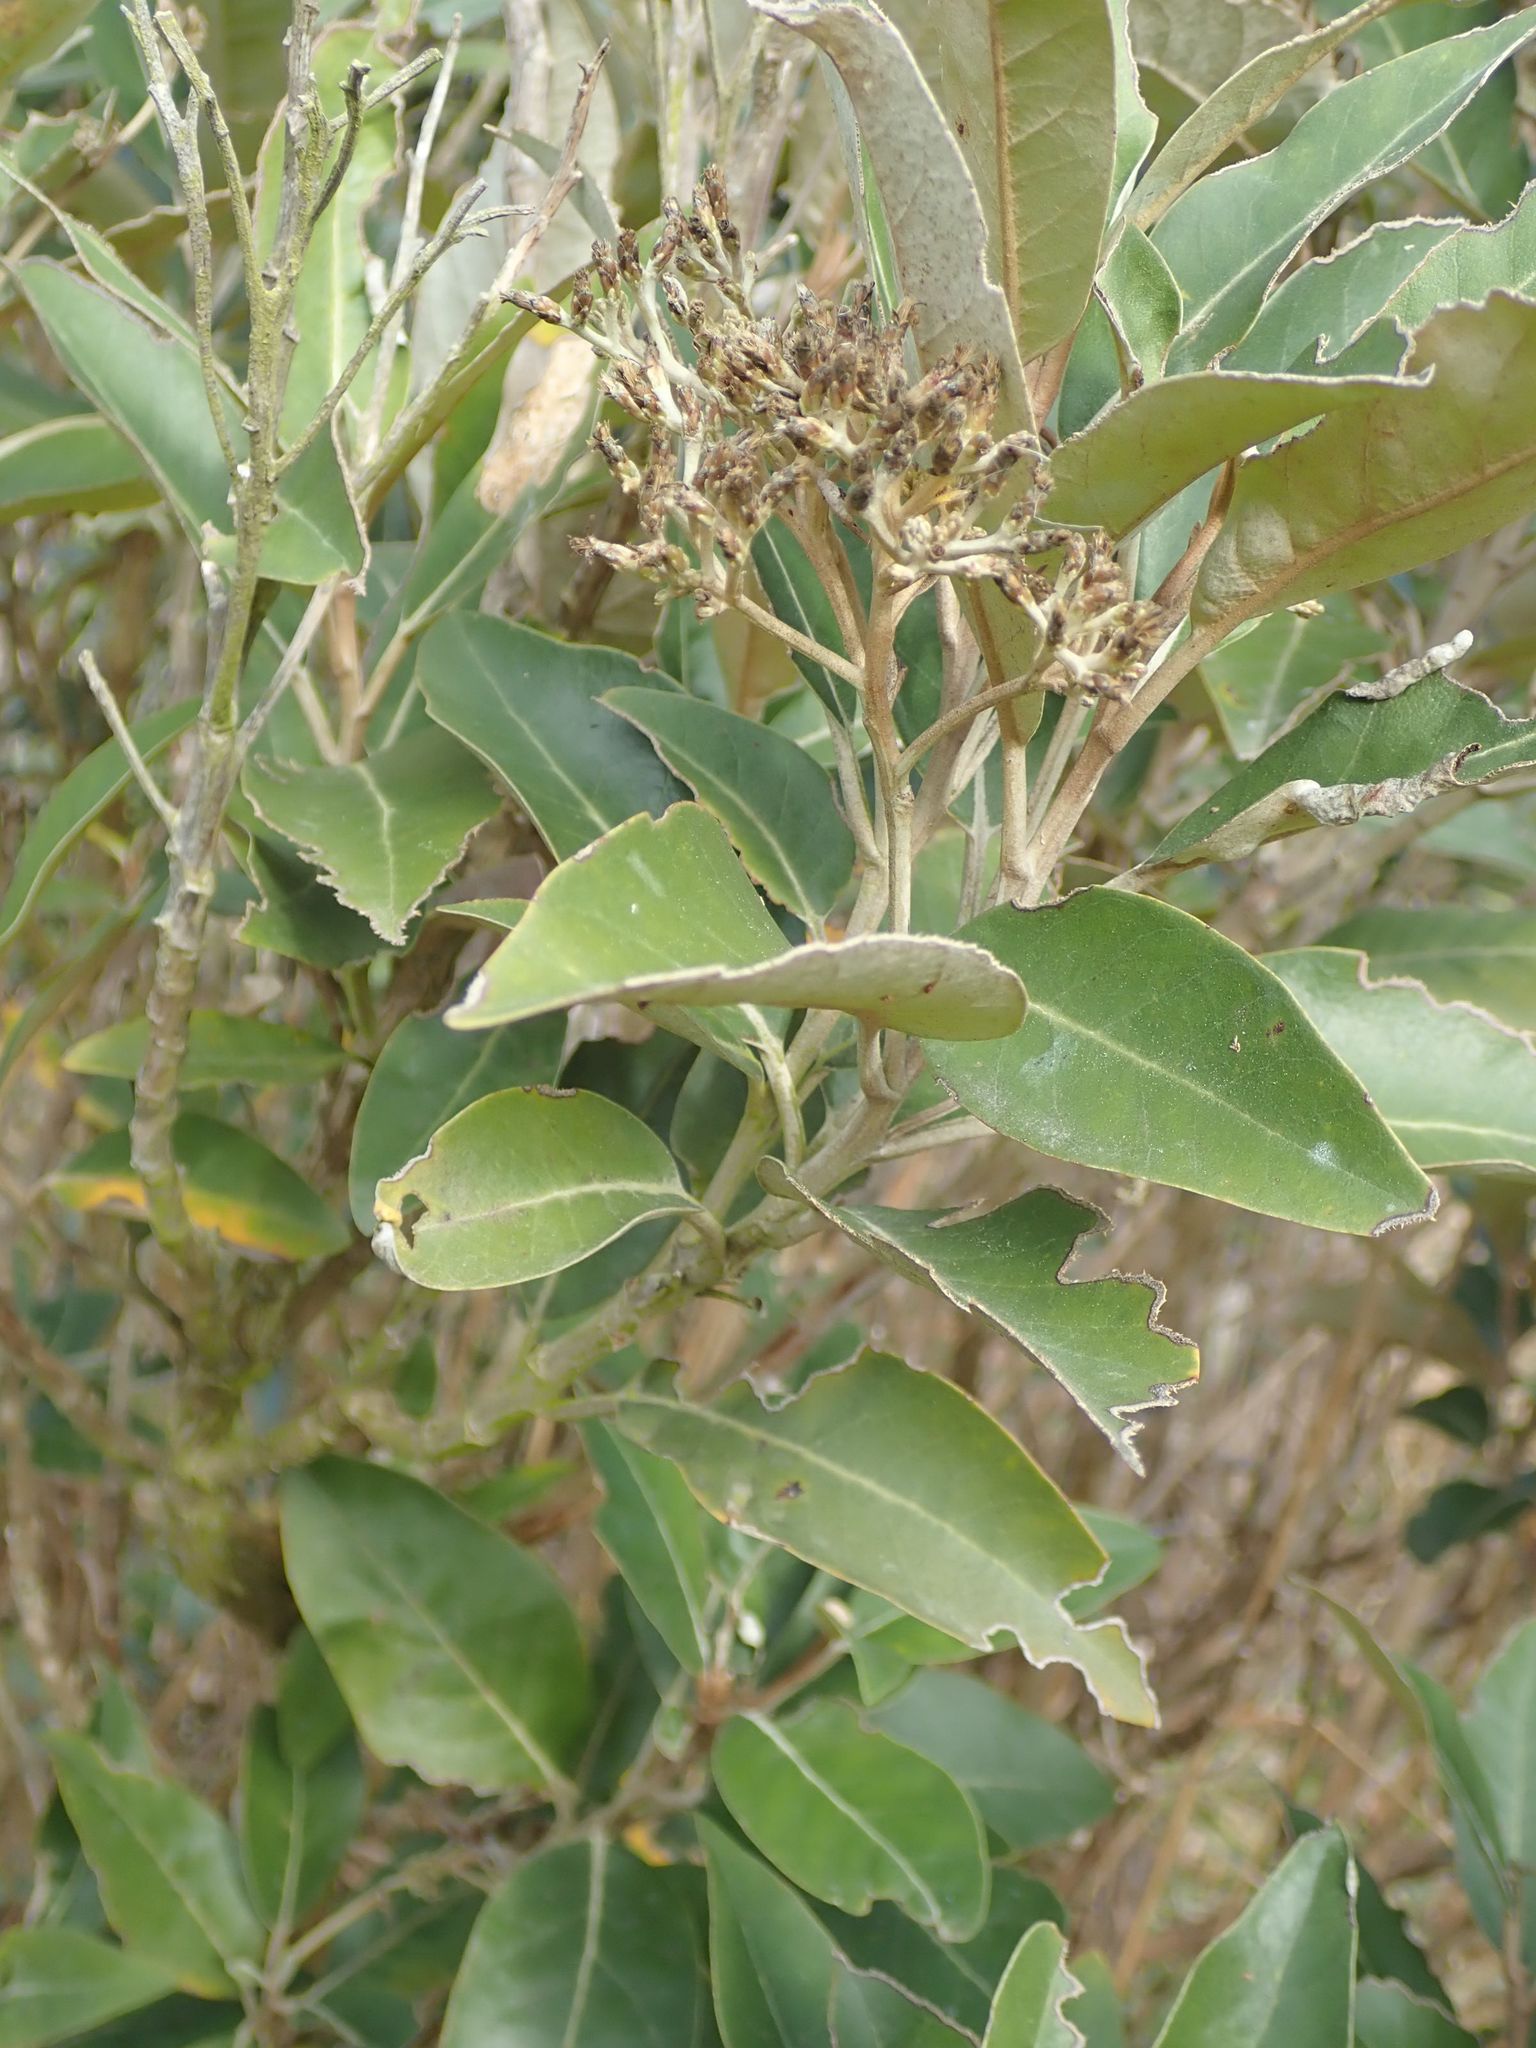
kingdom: Plantae
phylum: Tracheophyta
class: Magnoliopsida
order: Asterales
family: Asteraceae
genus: Olearia
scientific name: Olearia avicenniifolia
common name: Mangrove-leaf daisybush
